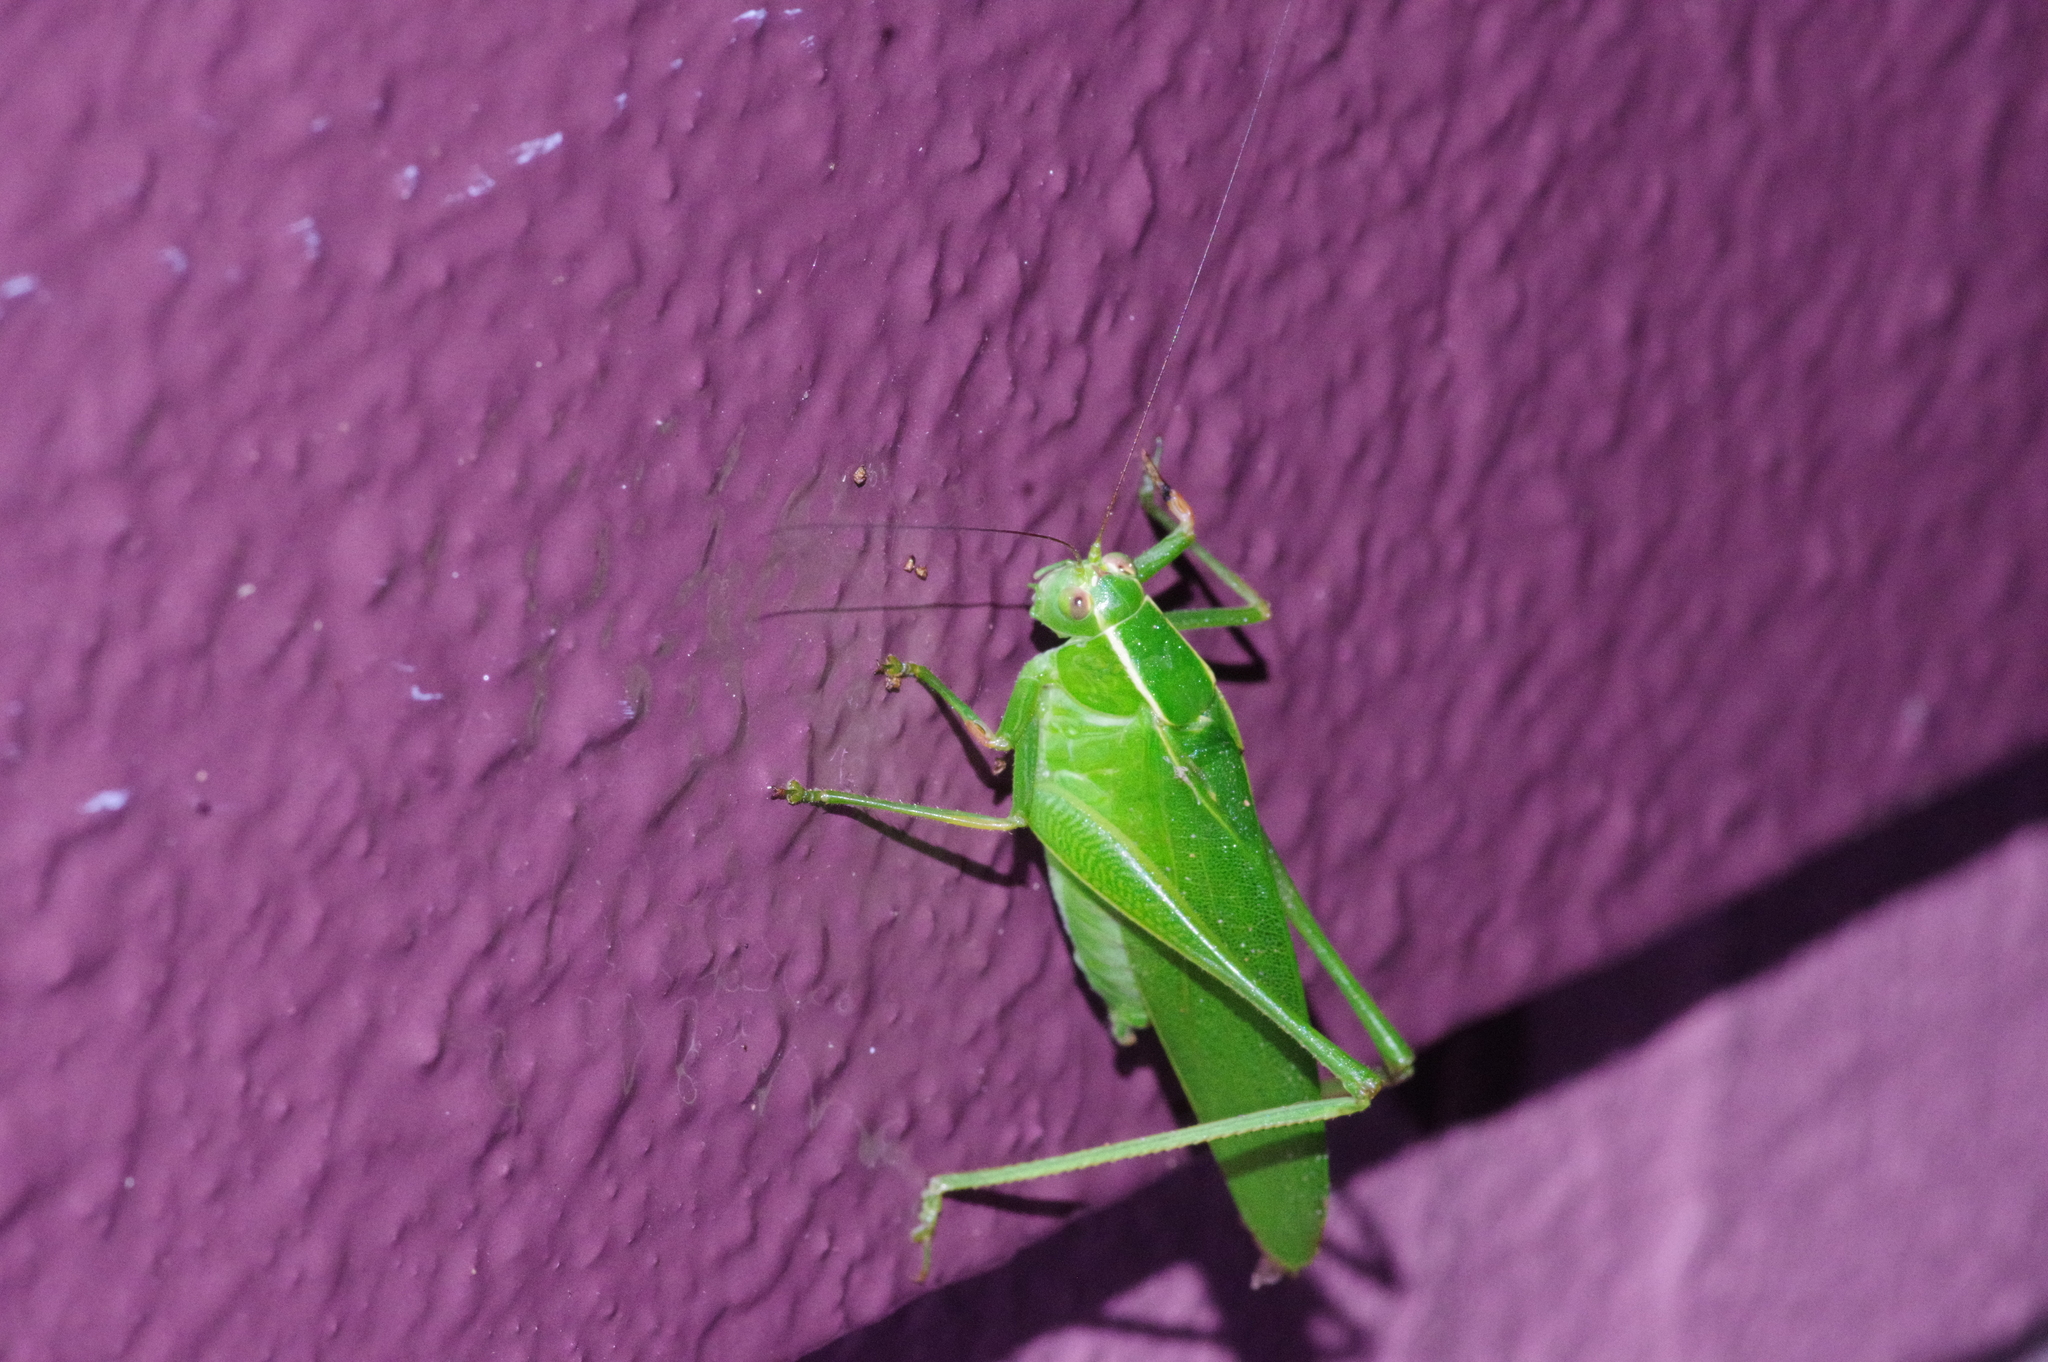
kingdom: Animalia
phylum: Arthropoda
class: Insecta
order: Orthoptera
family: Tettigoniidae
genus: Isopsera
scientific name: Isopsera denticulata
